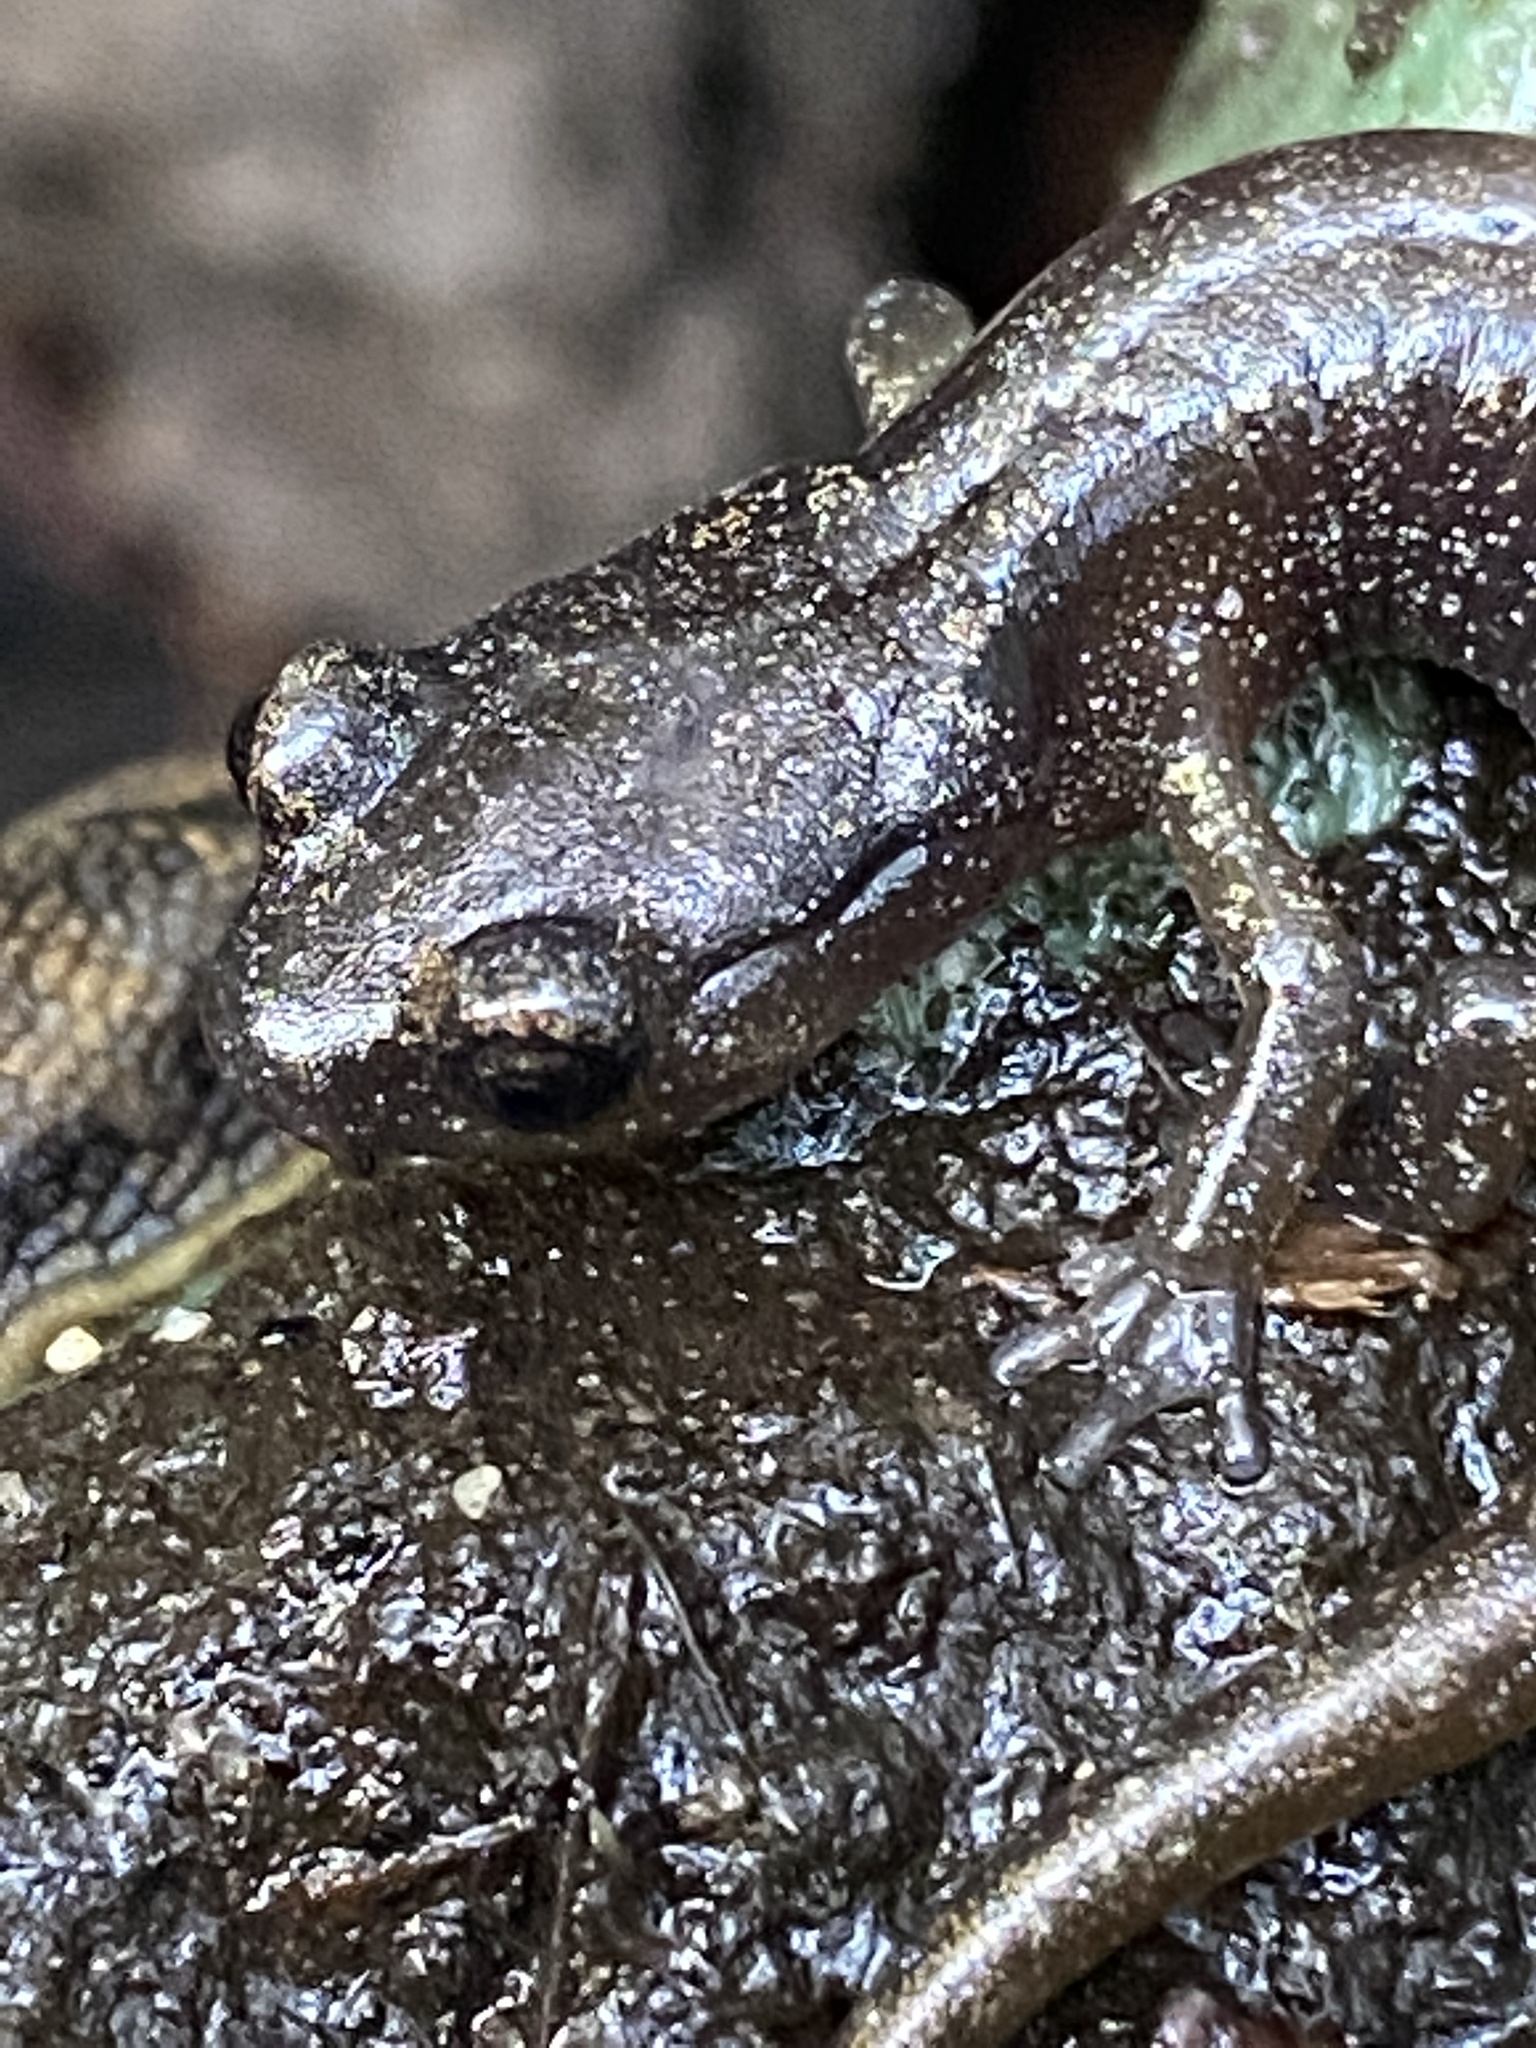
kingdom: Animalia
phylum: Chordata
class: Amphibia
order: Caudata
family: Plethodontidae
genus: Aneides
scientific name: Aneides lugubris
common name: Arboreal salamander
